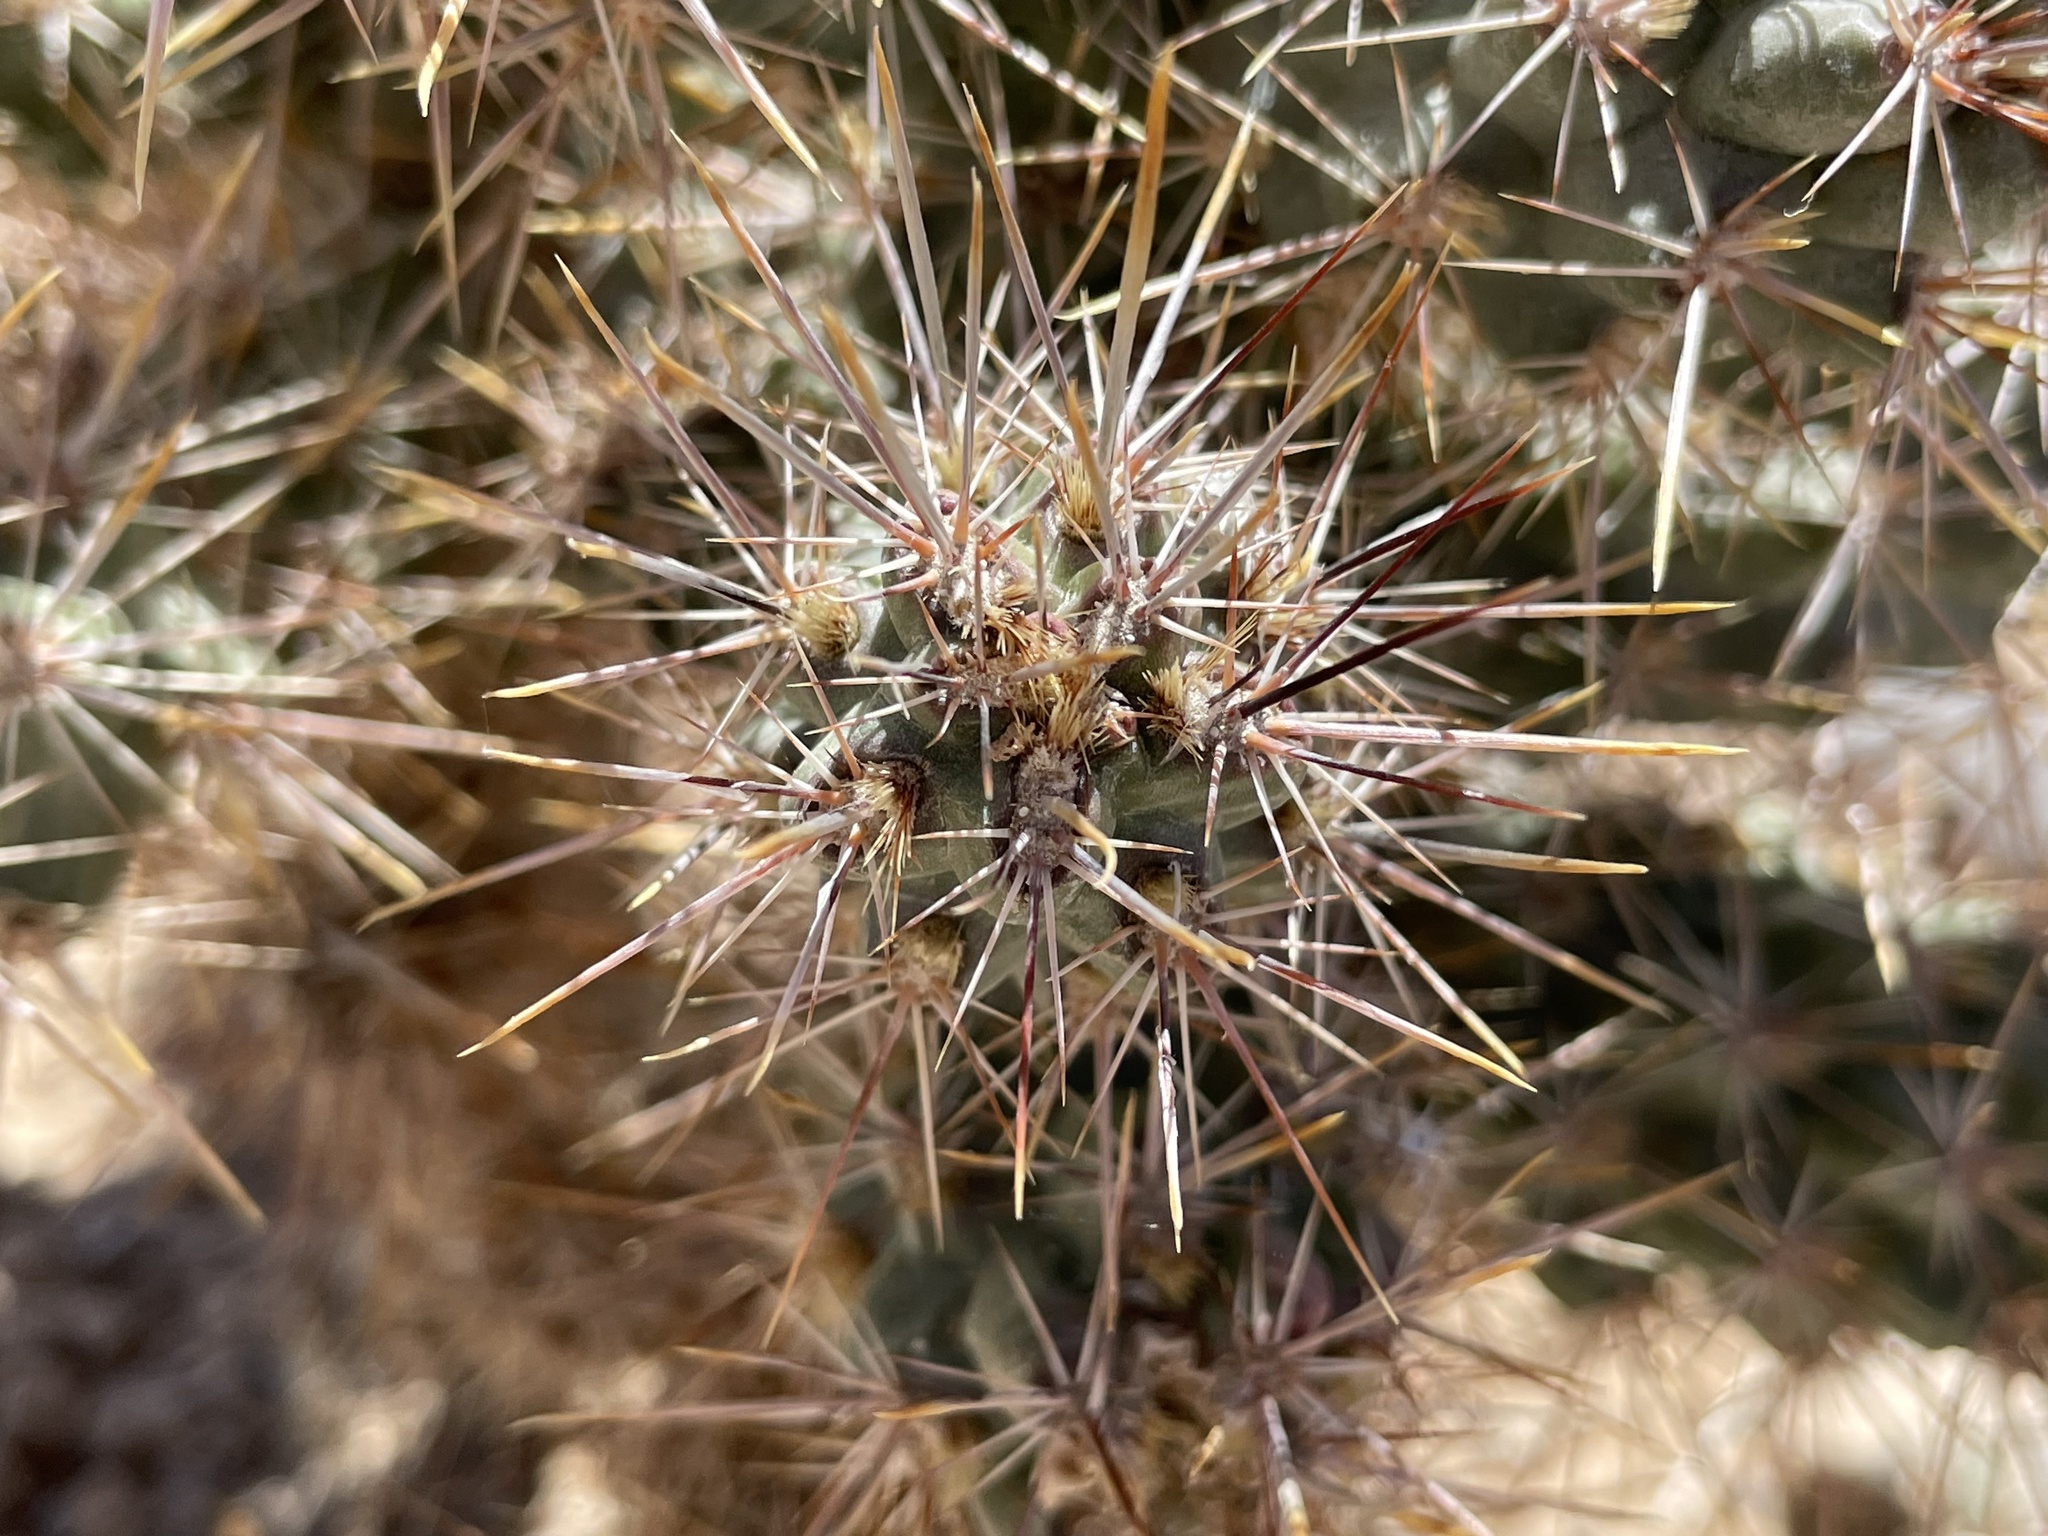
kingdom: Plantae
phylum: Tracheophyta
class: Magnoliopsida
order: Caryophyllales
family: Cactaceae
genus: Cylindropuntia
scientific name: Cylindropuntia echinocarpa
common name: Ground cholla
